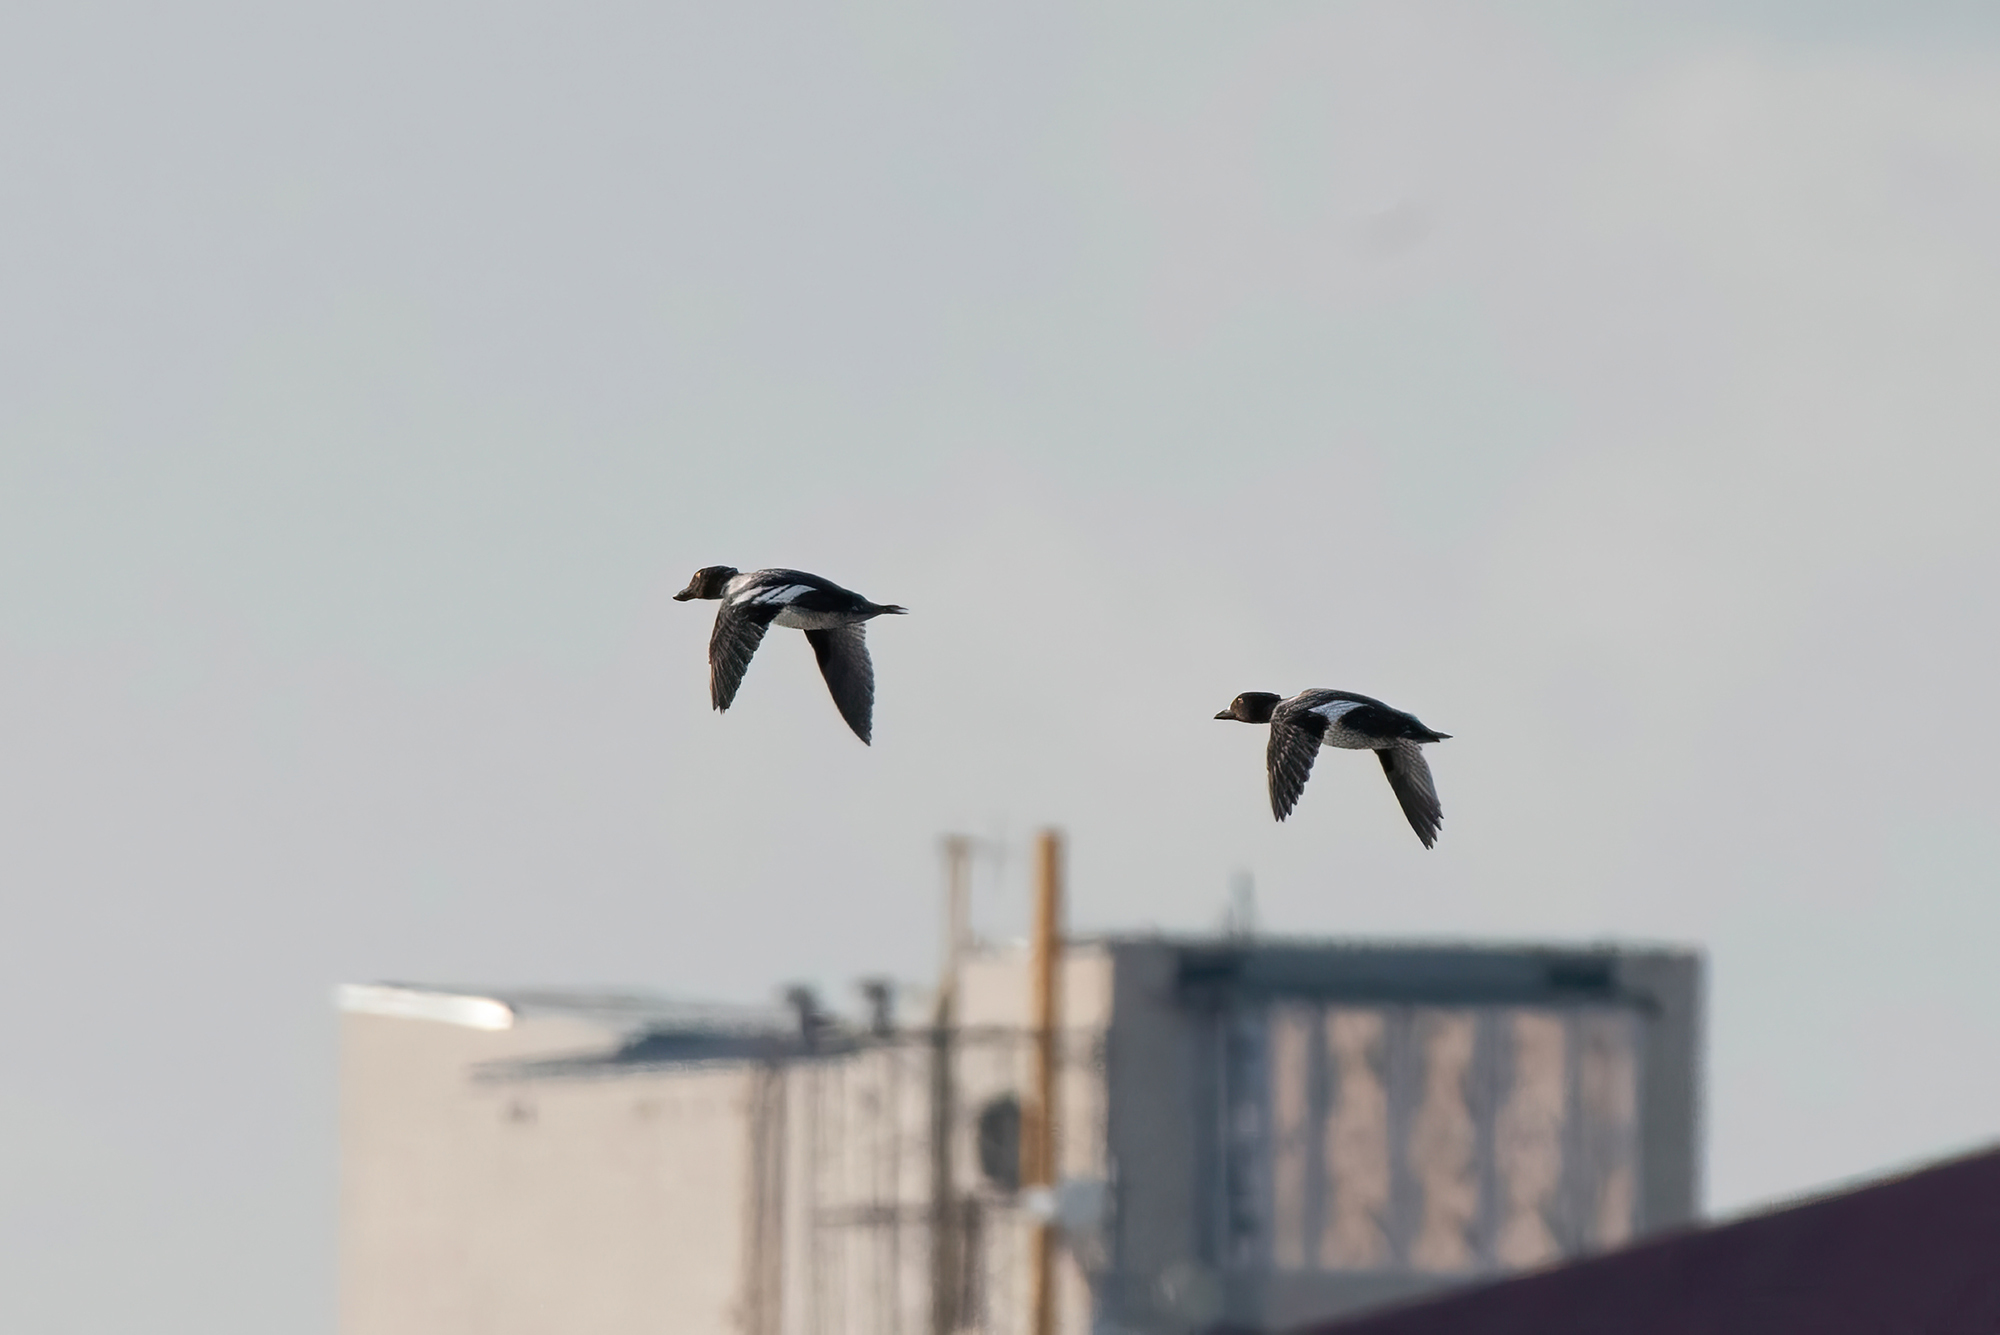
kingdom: Animalia
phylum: Chordata
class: Aves
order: Anseriformes
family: Anatidae
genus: Bucephala
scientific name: Bucephala clangula
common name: Common goldeneye
